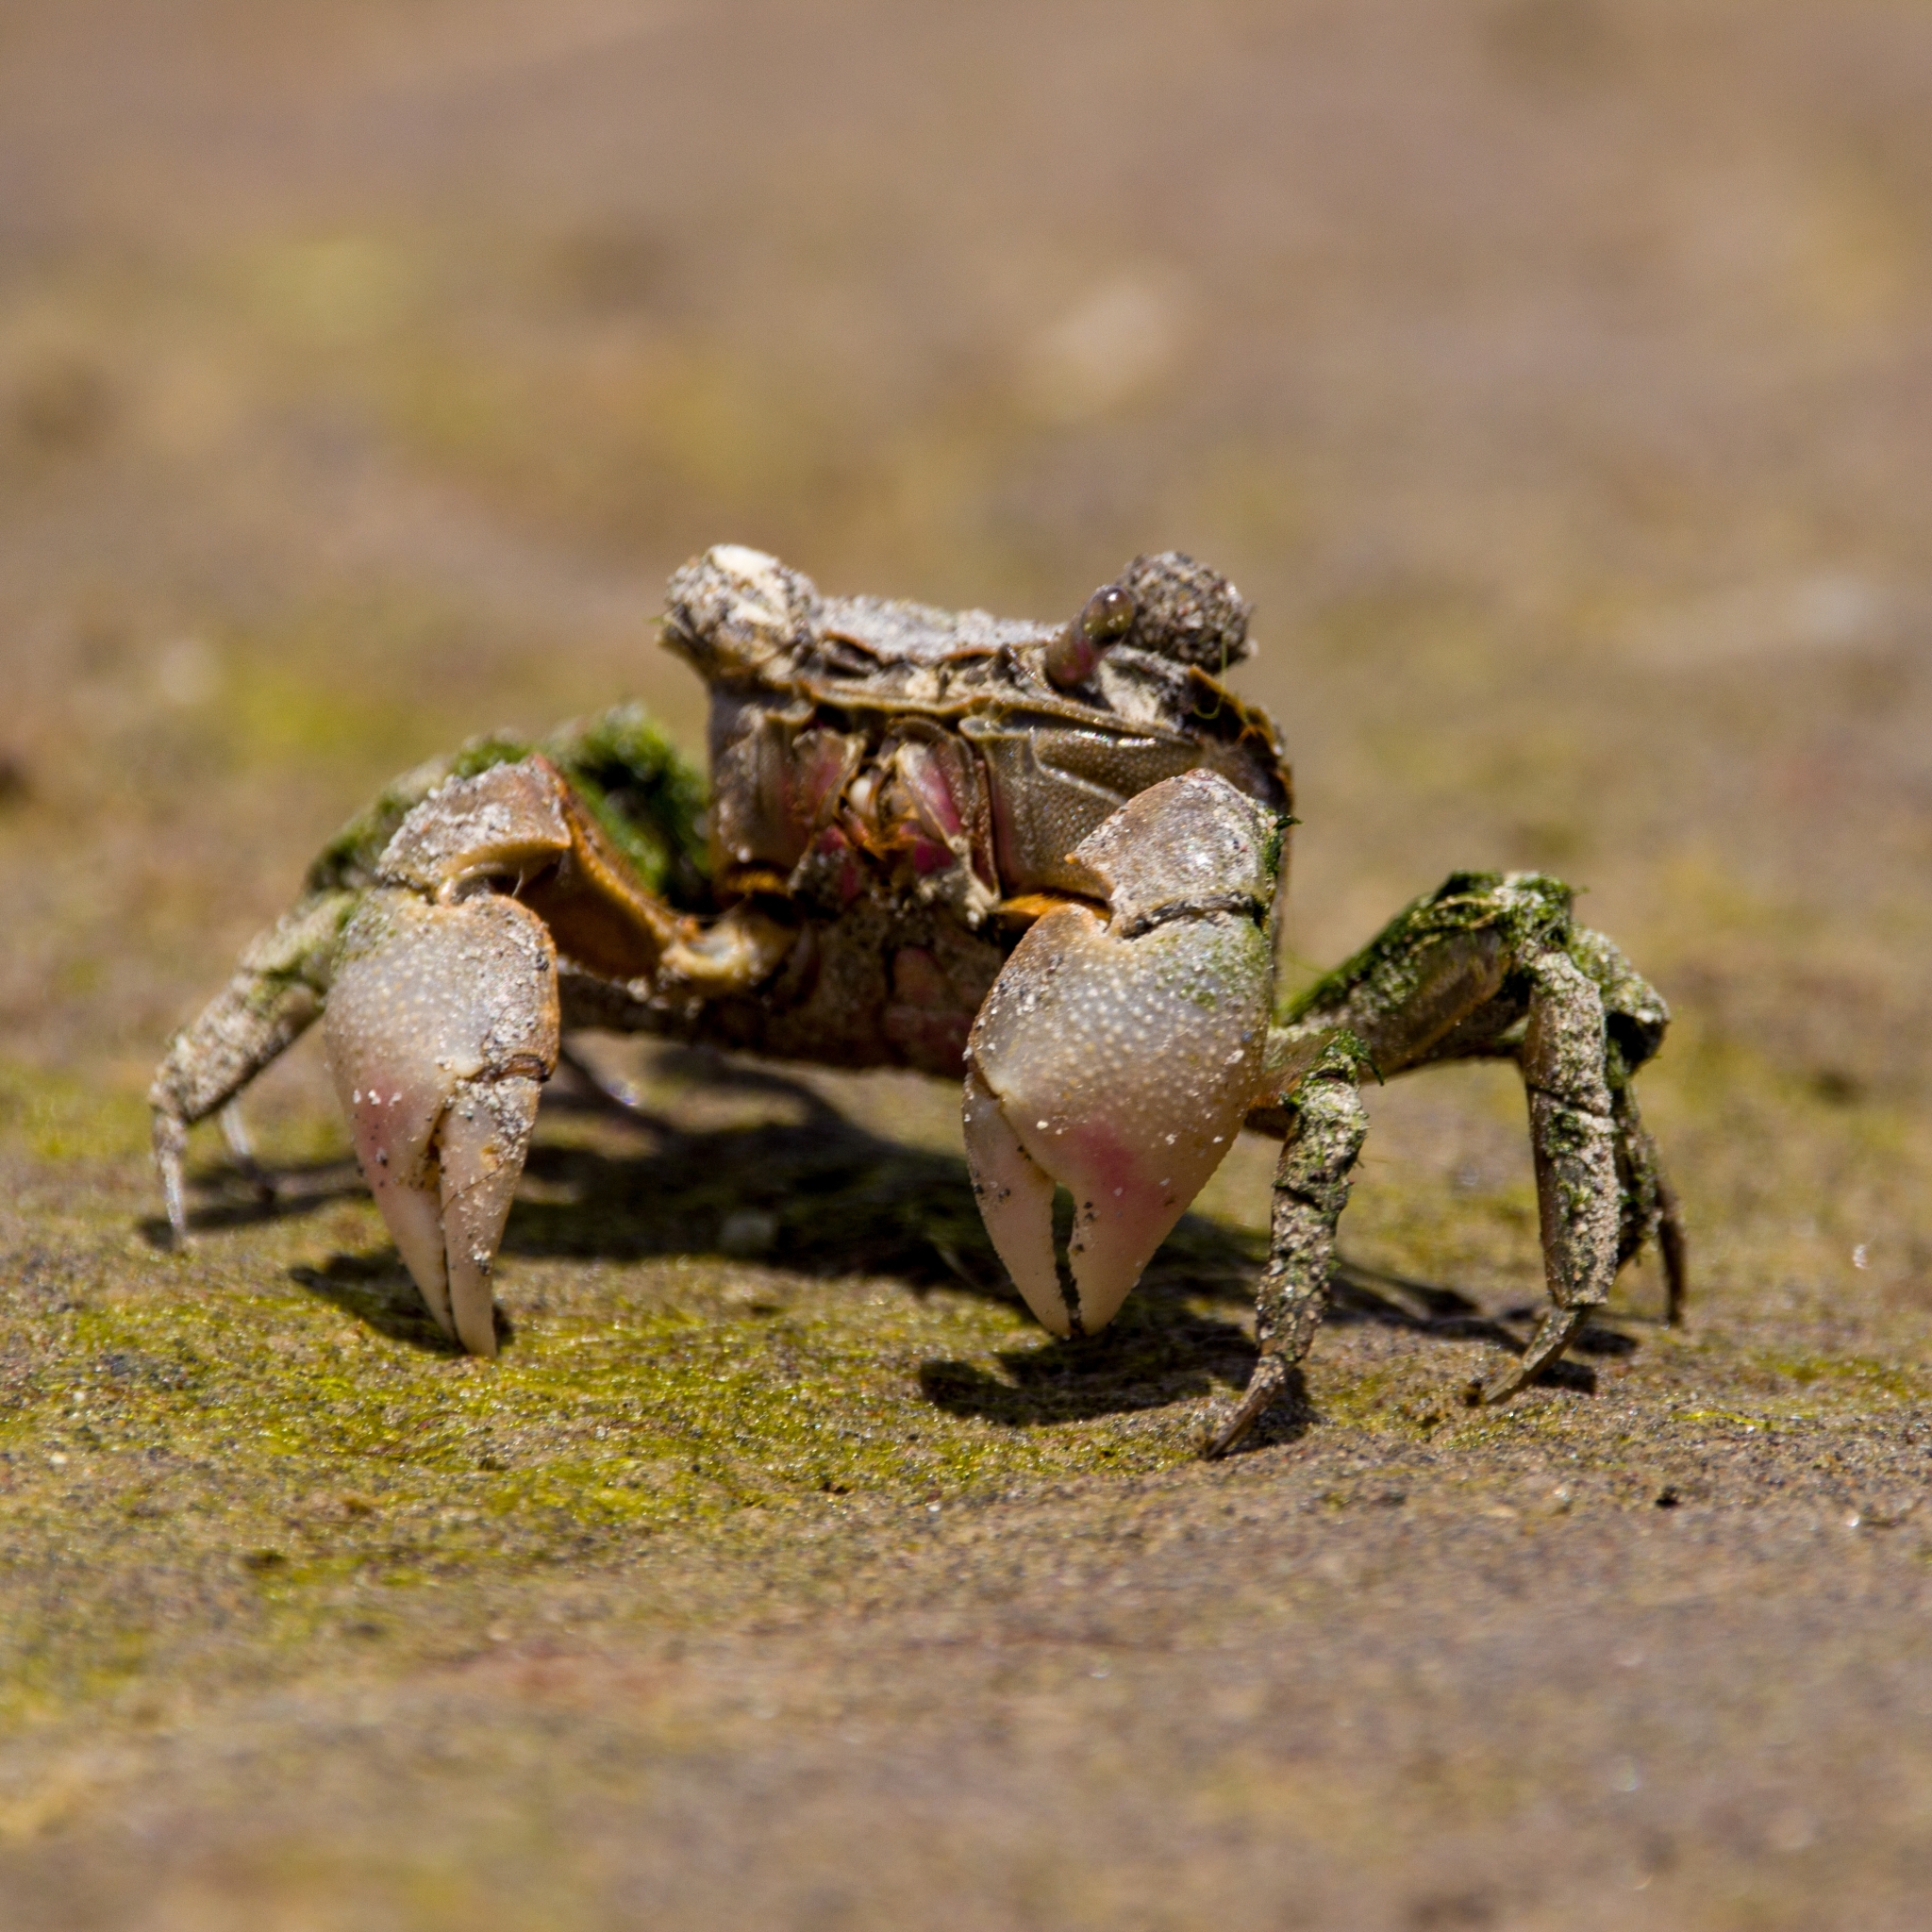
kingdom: Animalia
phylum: Arthropoda
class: Malacostraca
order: Decapoda
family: Varunidae
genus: Neohelice
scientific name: Neohelice granulata
